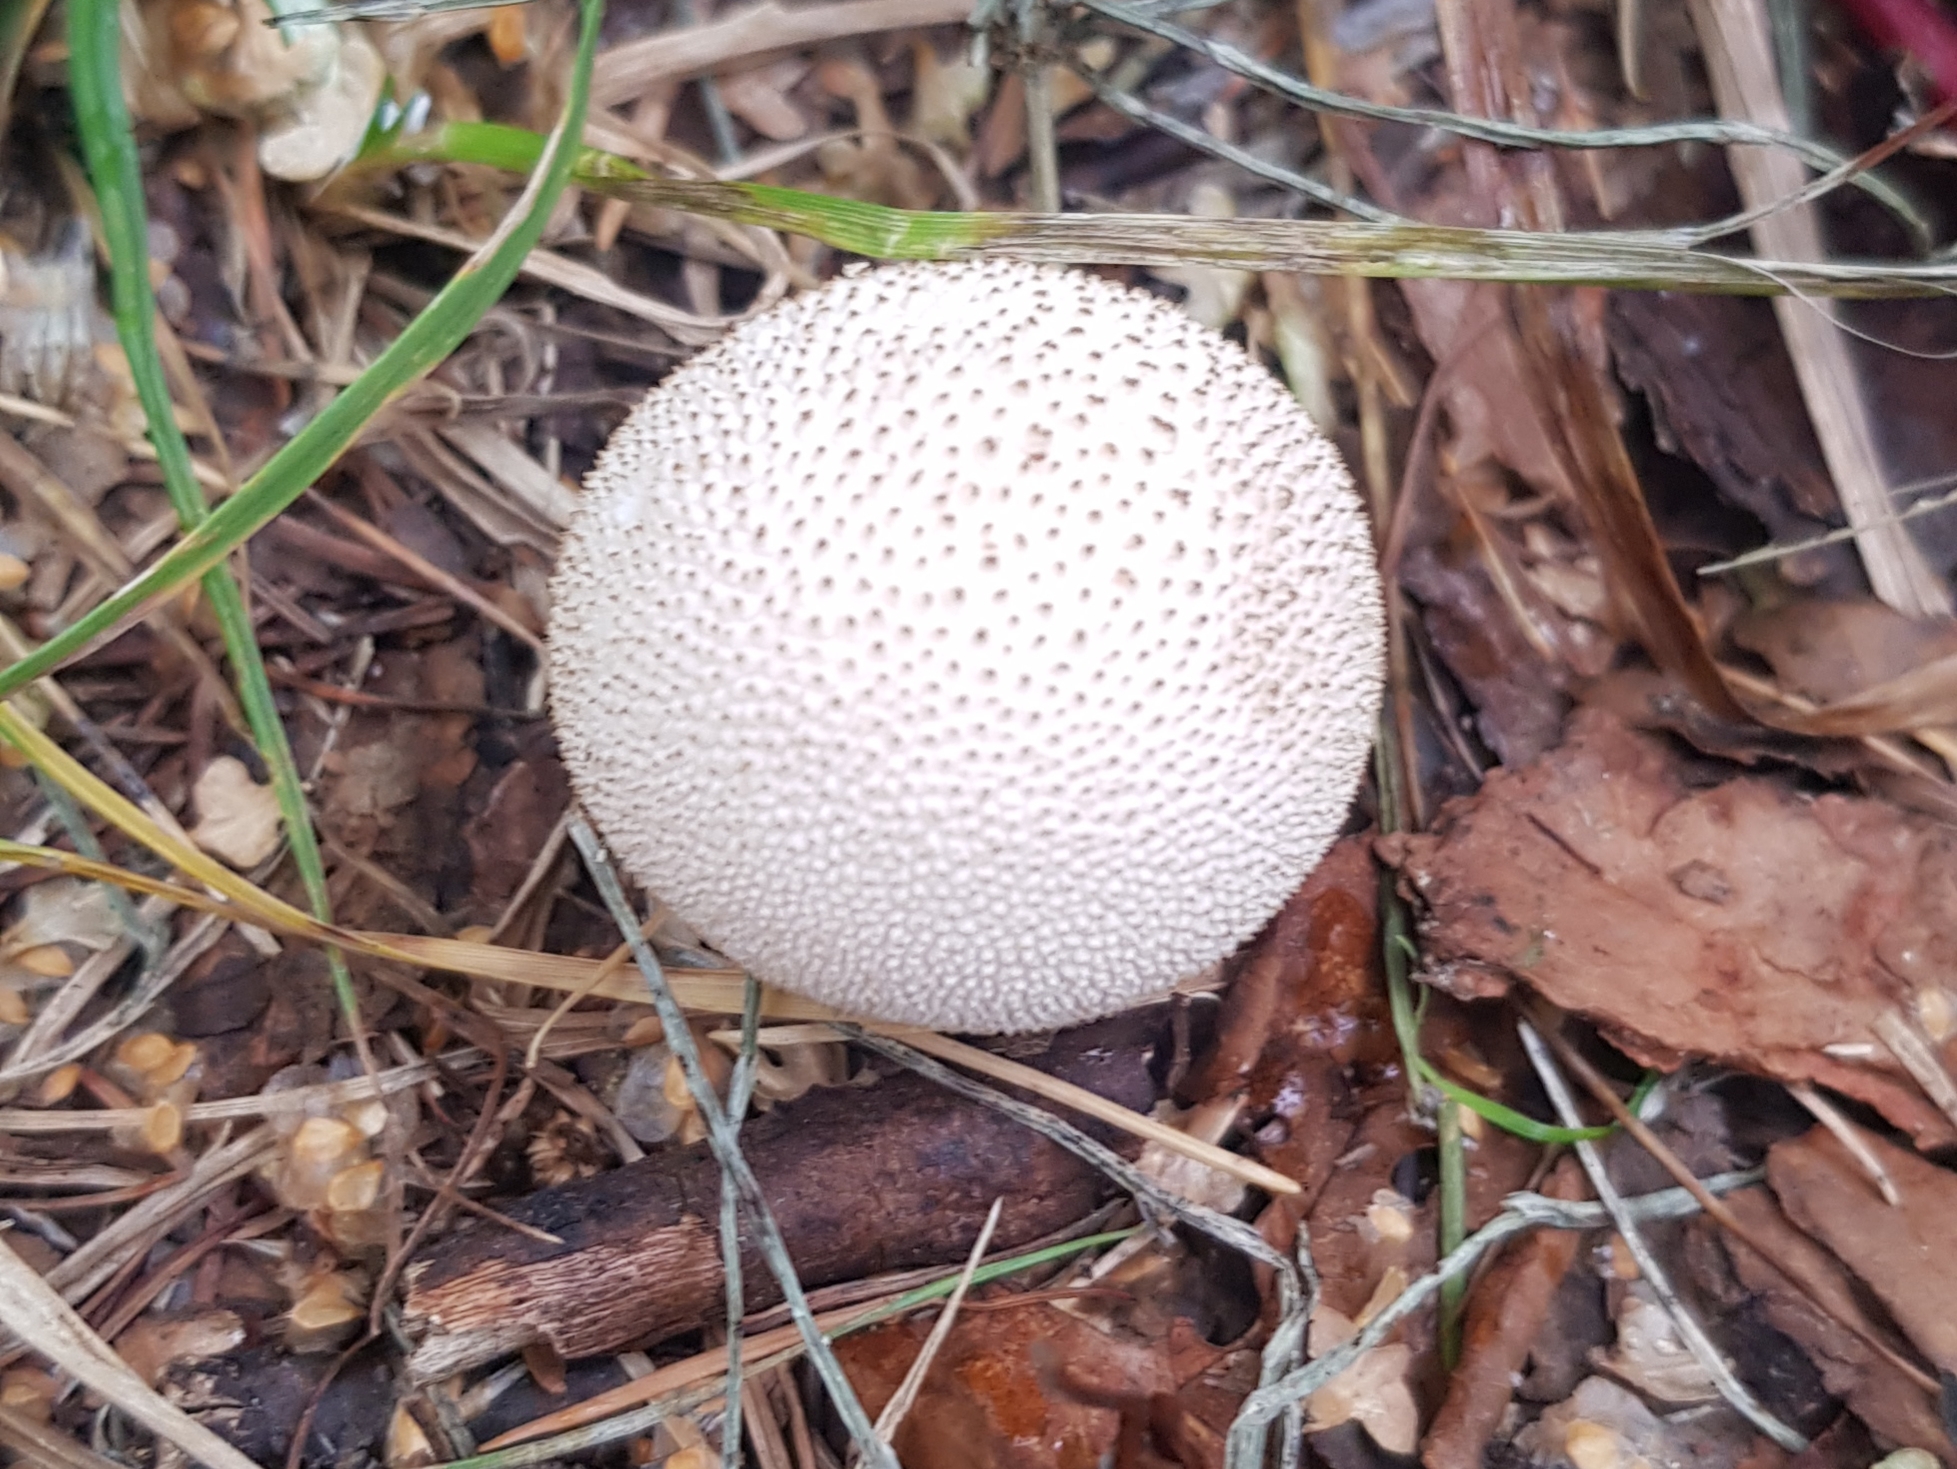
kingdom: Fungi
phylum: Basidiomycota
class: Agaricomycetes
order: Agaricales
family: Lycoperdaceae
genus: Lycoperdon
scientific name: Lycoperdon perlatum
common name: Common puffball
